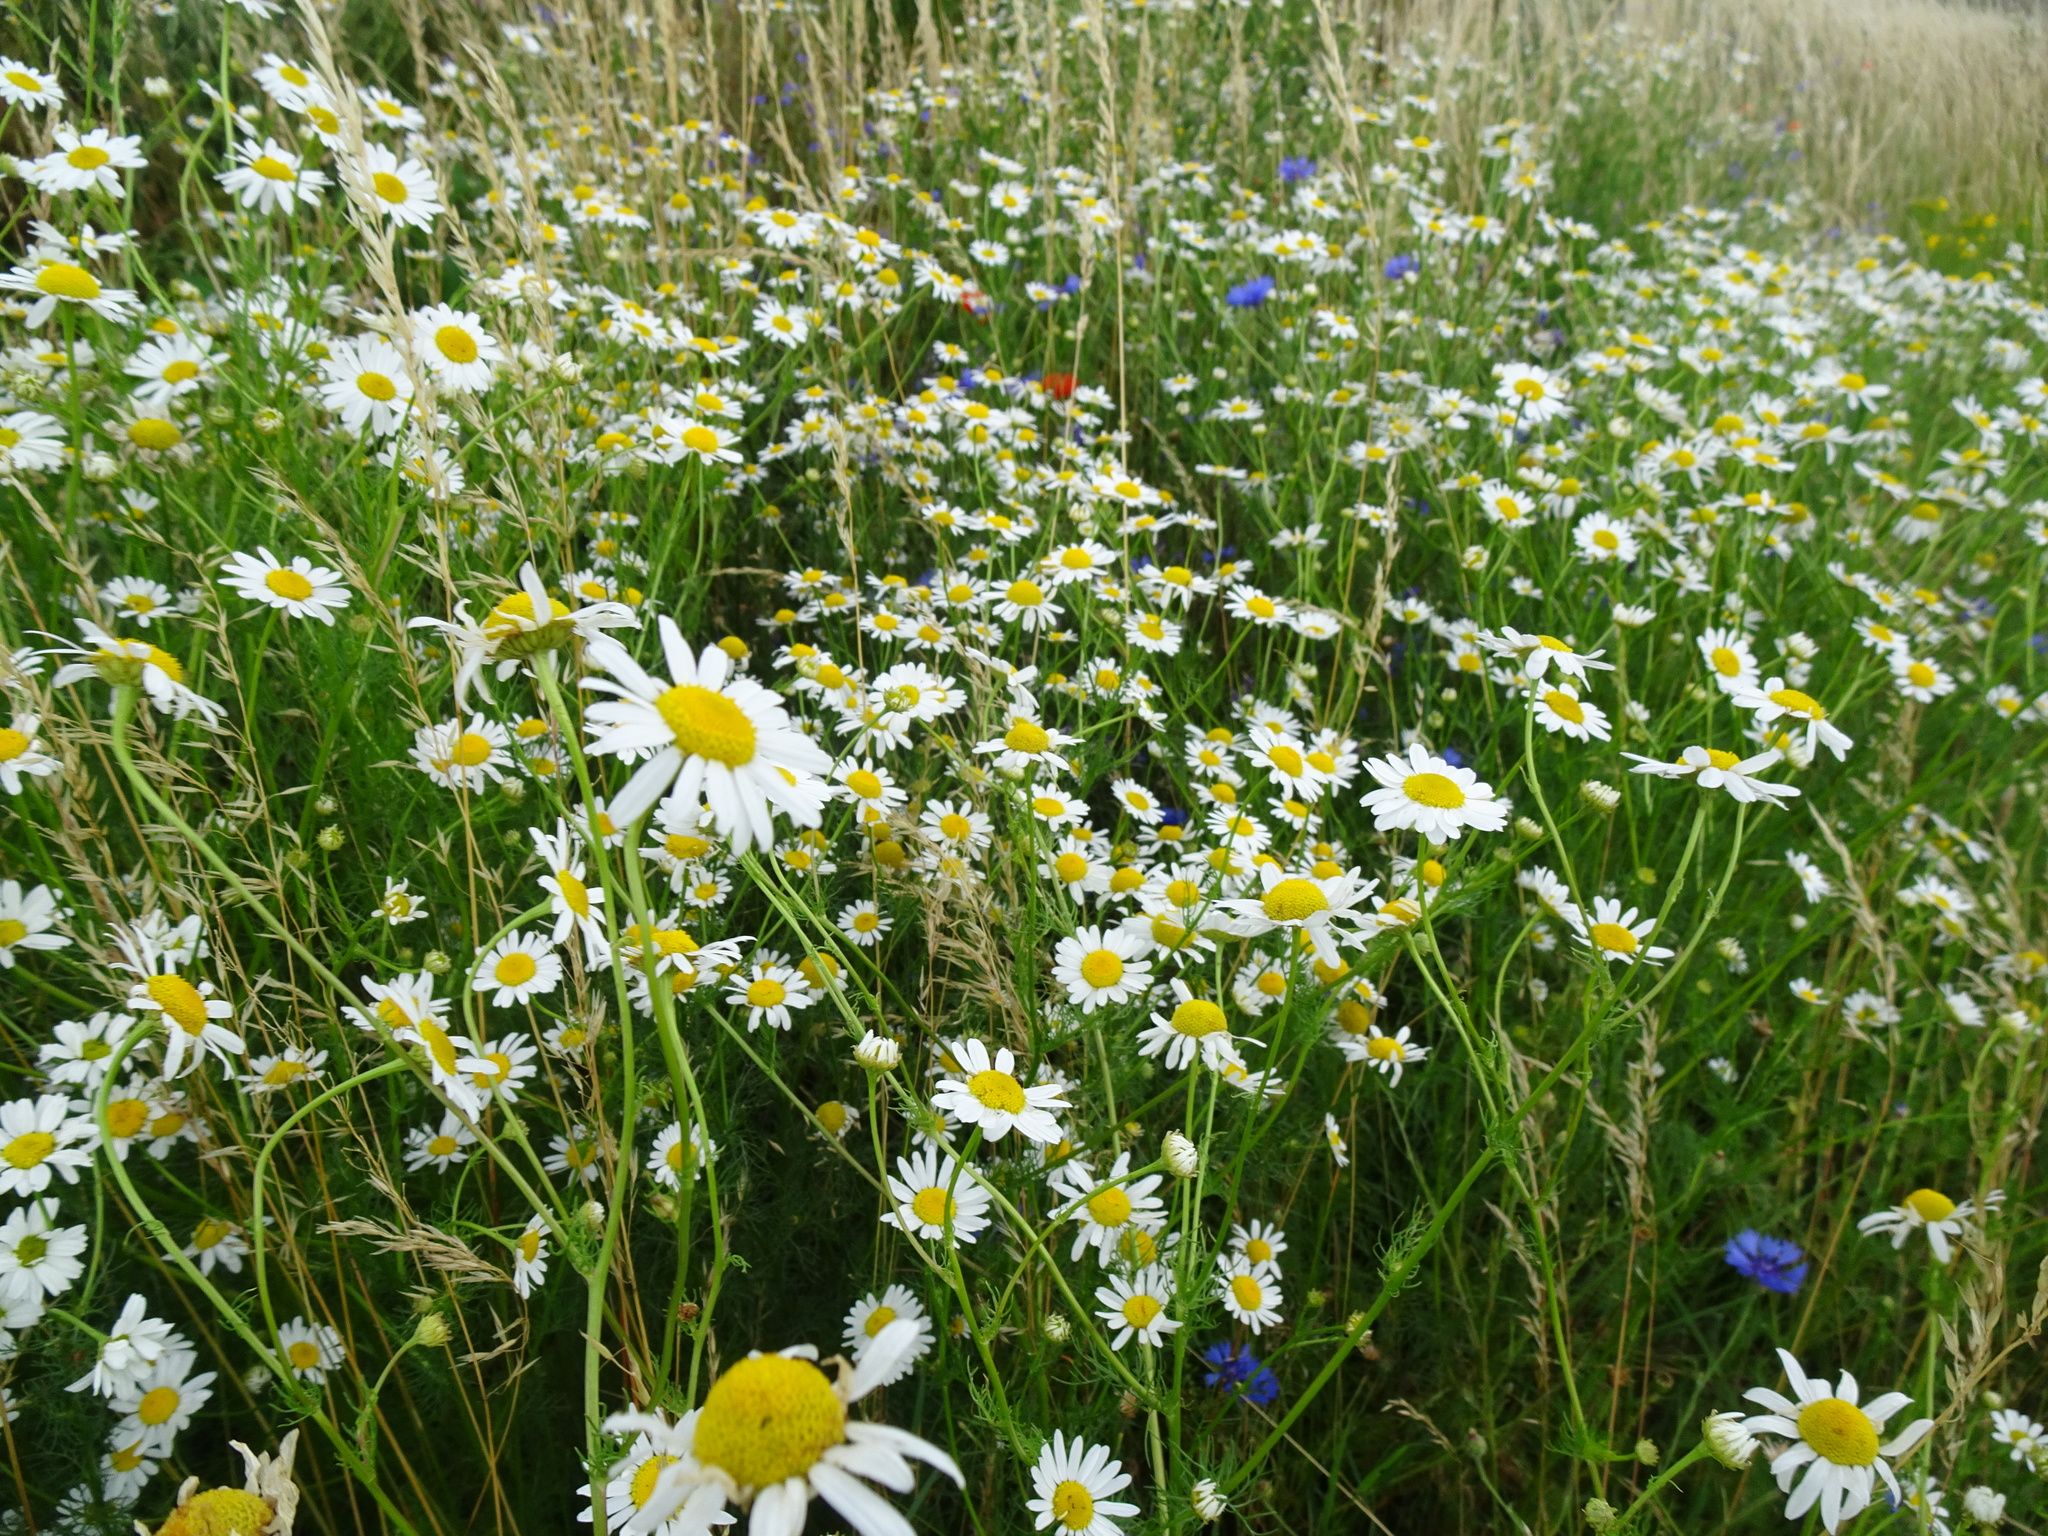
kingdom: Plantae
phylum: Tracheophyta
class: Magnoliopsida
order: Asterales
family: Asteraceae
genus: Tripleurospermum
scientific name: Tripleurospermum inodorum
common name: Scentless mayweed
